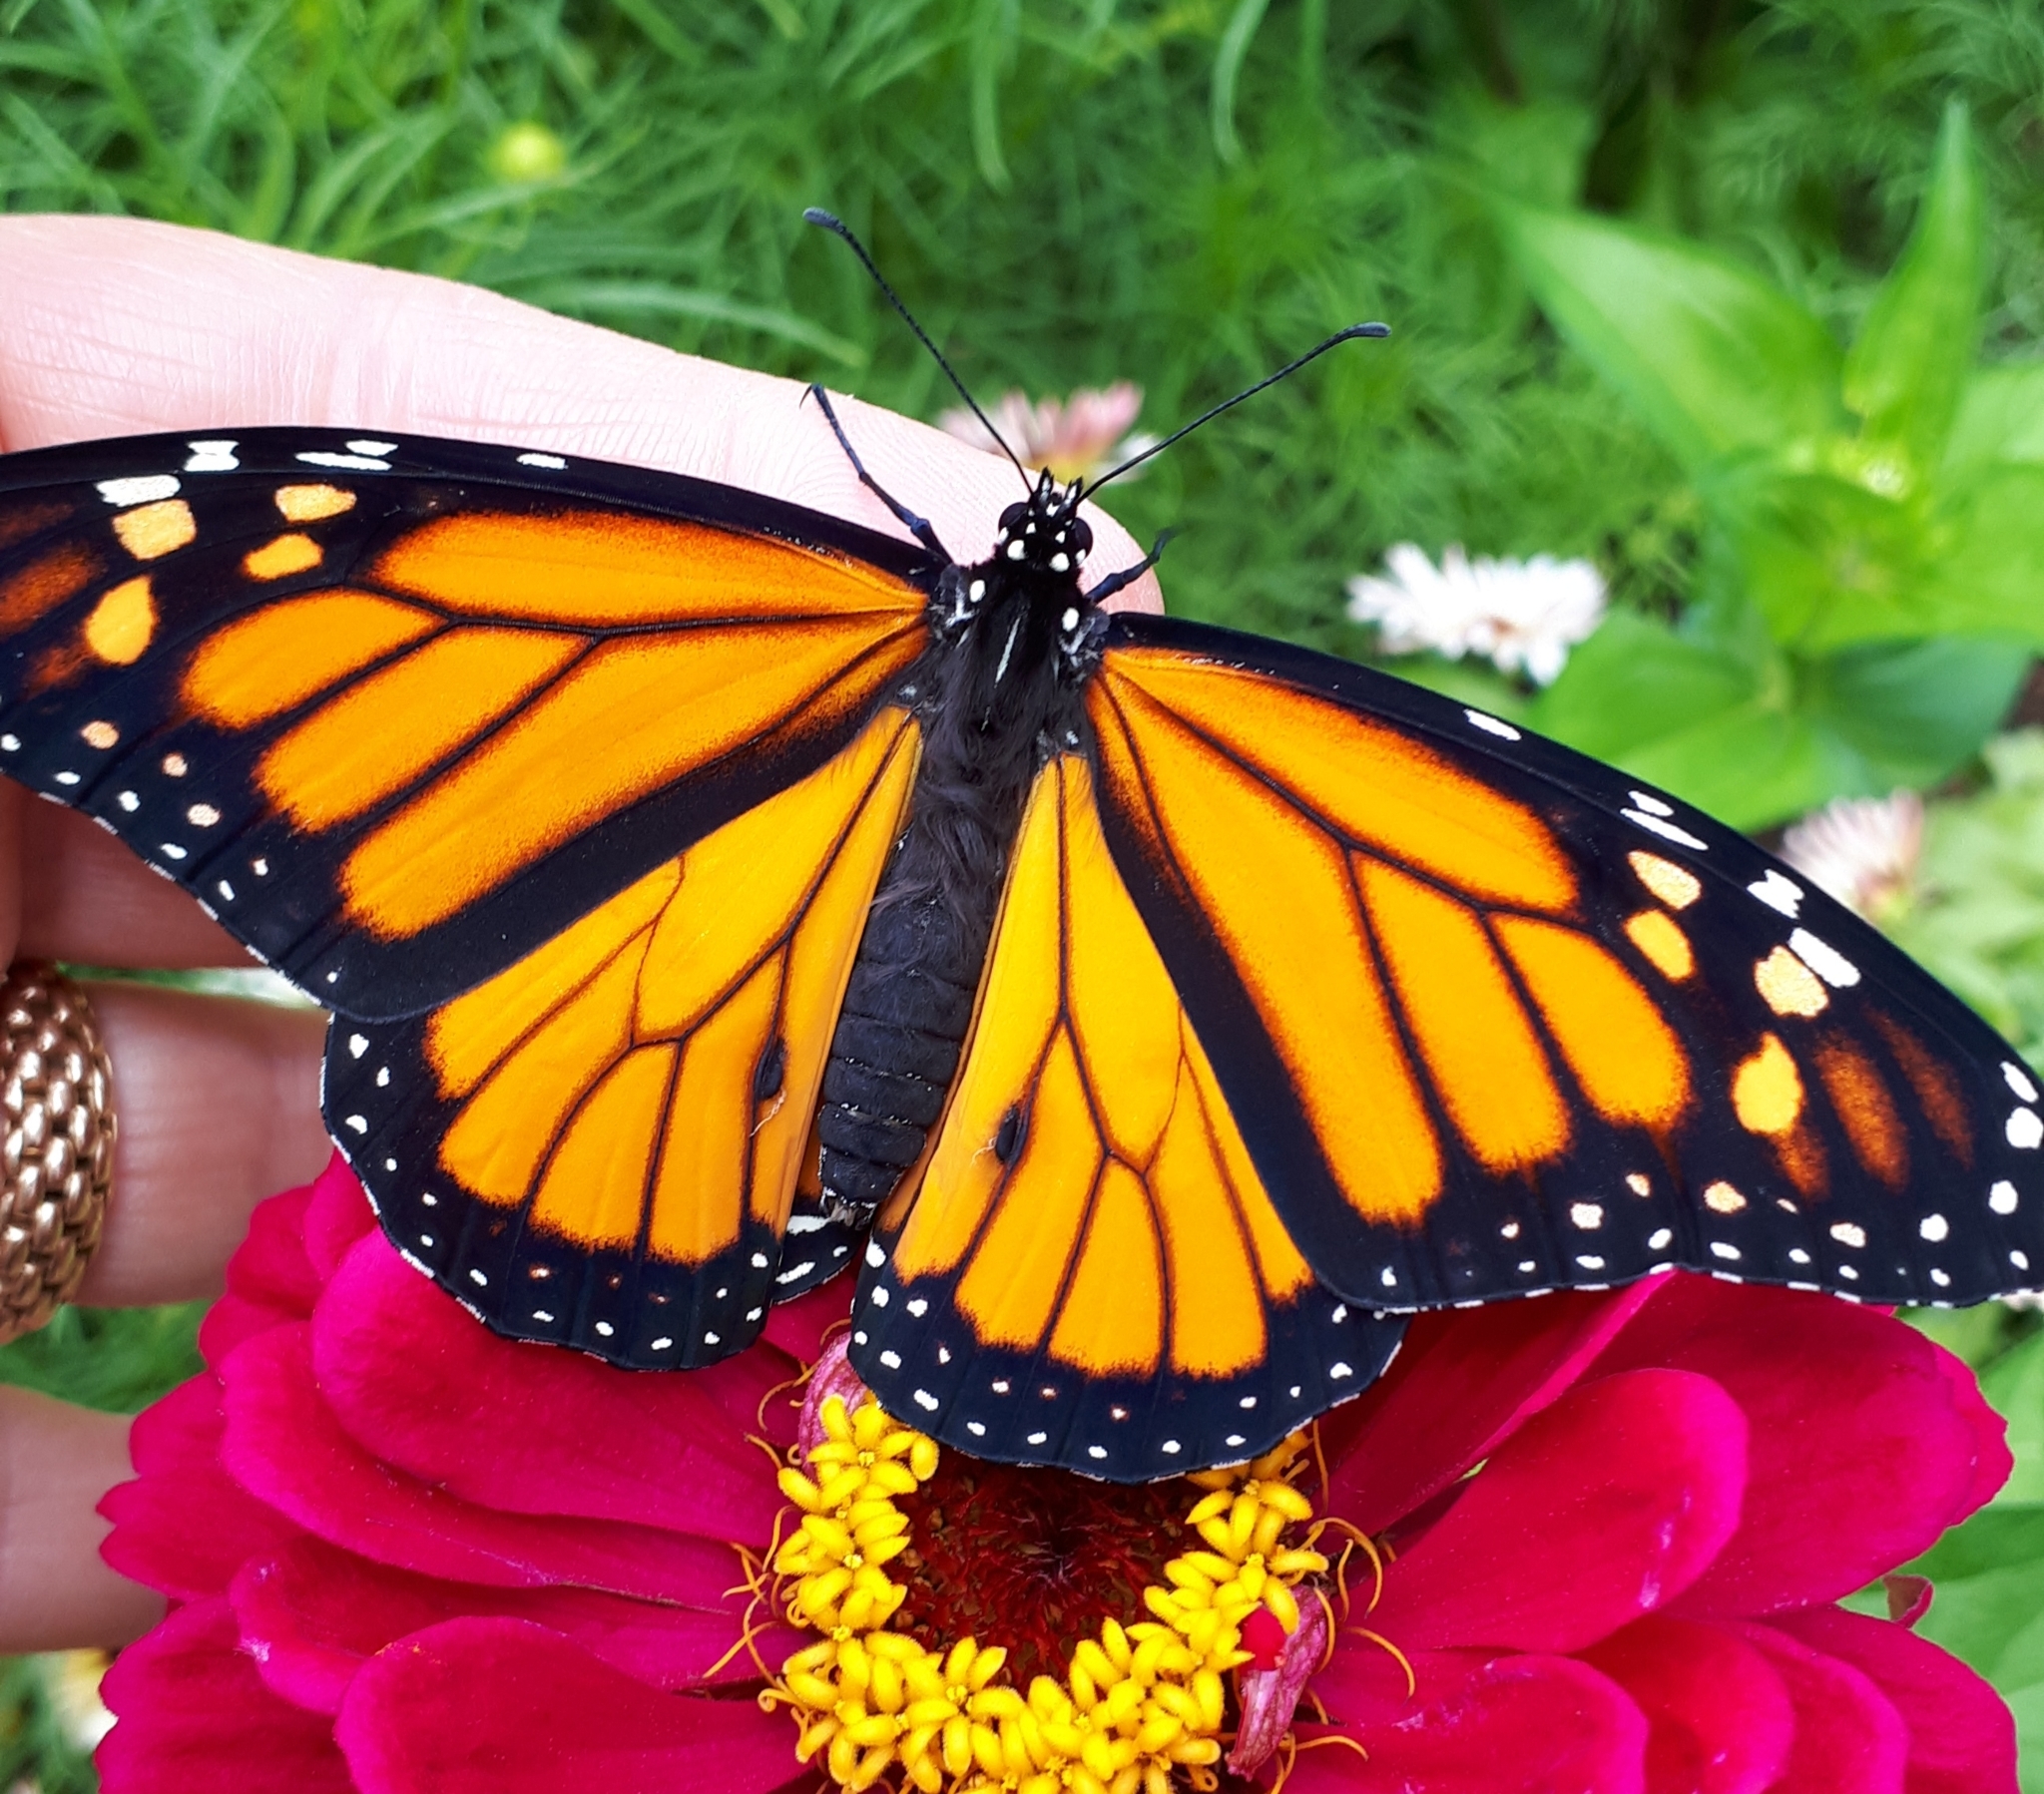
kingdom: Animalia
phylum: Arthropoda
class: Insecta
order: Lepidoptera
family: Nymphalidae
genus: Danaus
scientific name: Danaus plexippus
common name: Monarch
